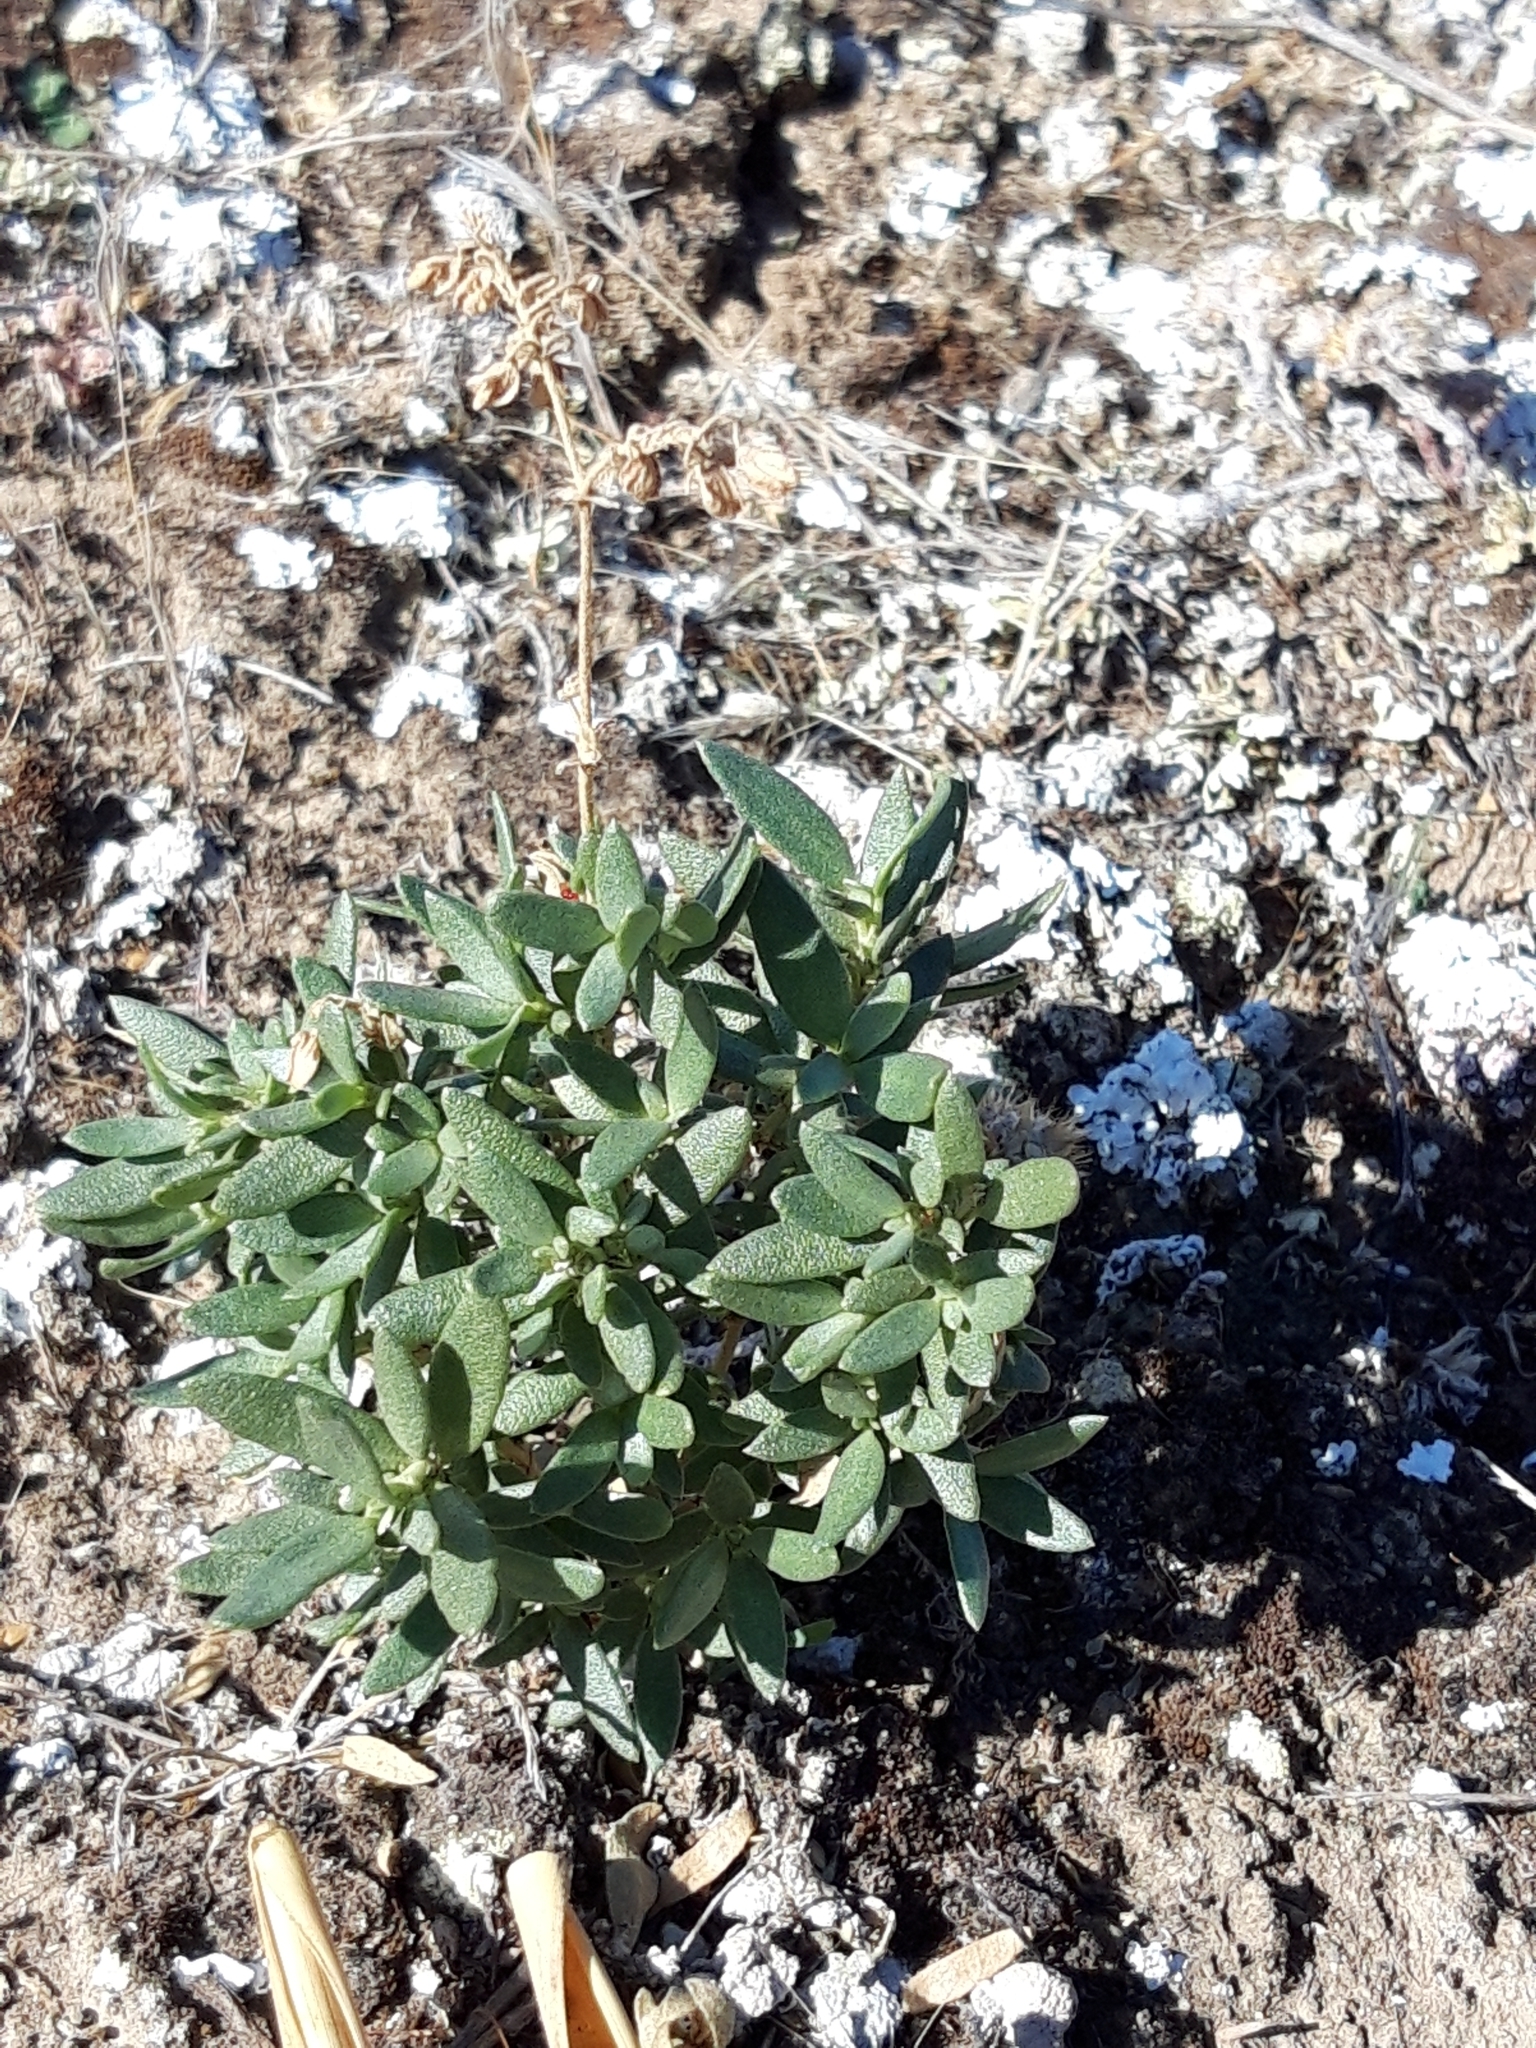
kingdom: Plantae
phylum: Tracheophyta
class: Magnoliopsida
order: Malvales
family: Cistaceae
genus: Helianthemum
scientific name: Helianthemum squamatum
